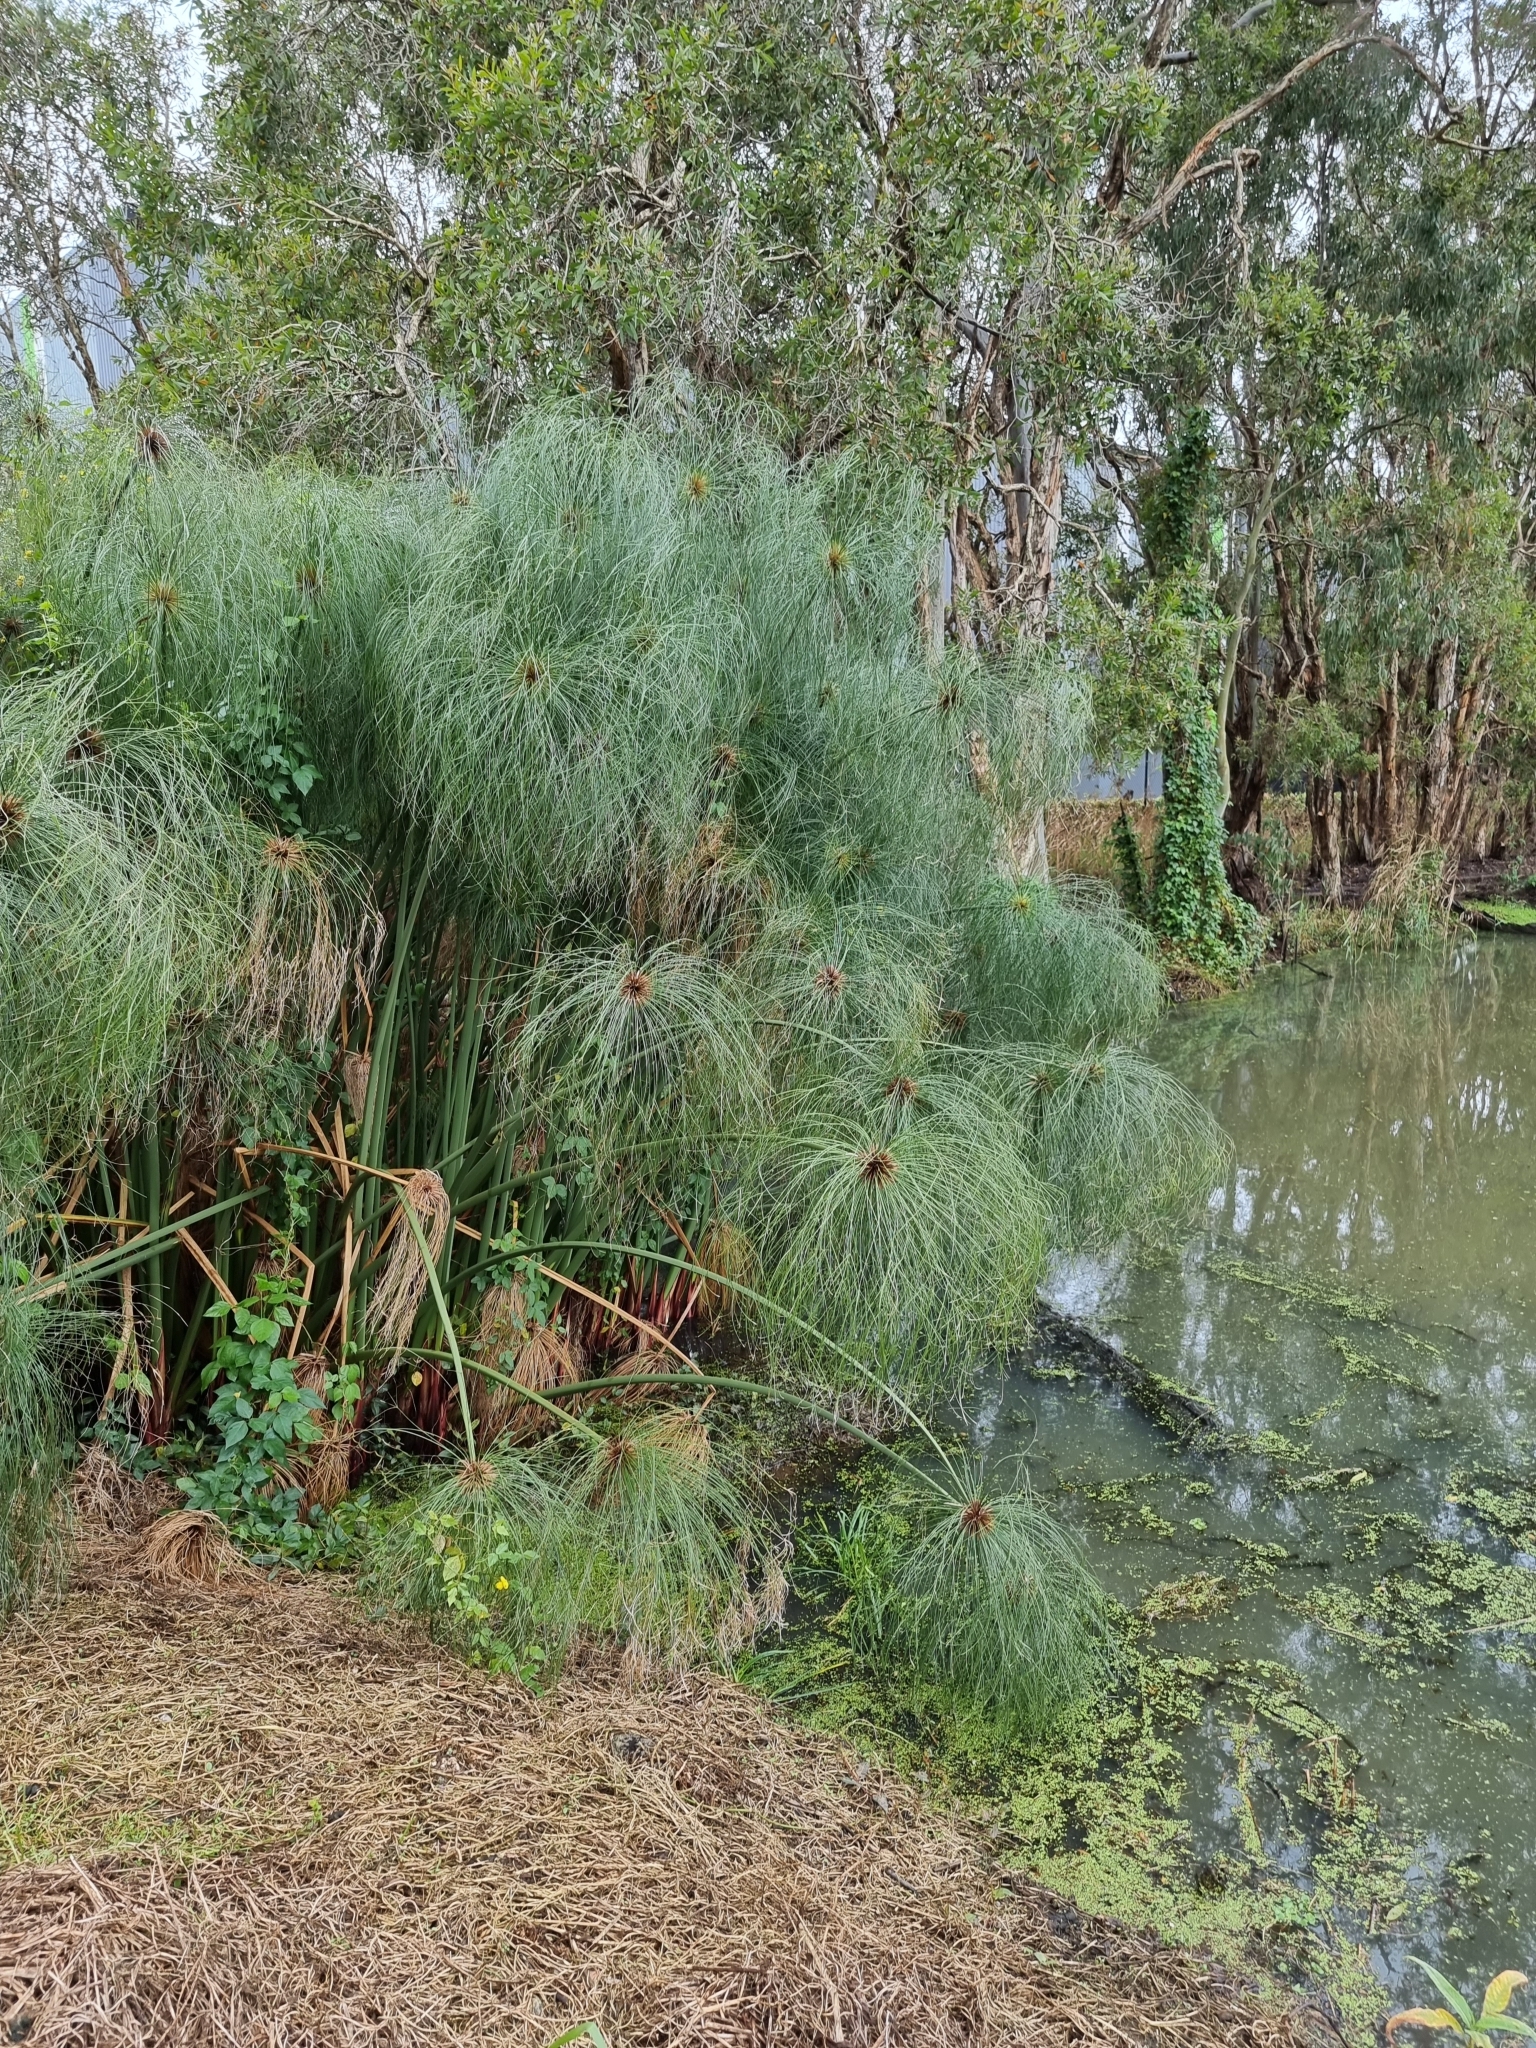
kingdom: Plantae
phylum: Tracheophyta
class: Liliopsida
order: Poales
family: Cyperaceae
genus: Cyperus
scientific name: Cyperus papyrus
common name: Papyrus
